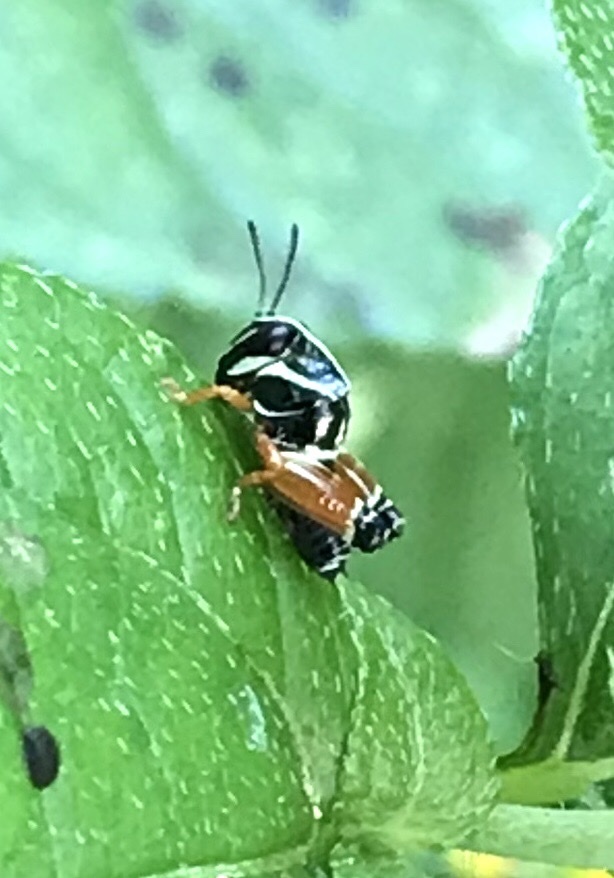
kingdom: Animalia
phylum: Arthropoda
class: Insecta
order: Orthoptera
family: Acrididae
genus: Aidemona
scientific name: Aidemona azteca
